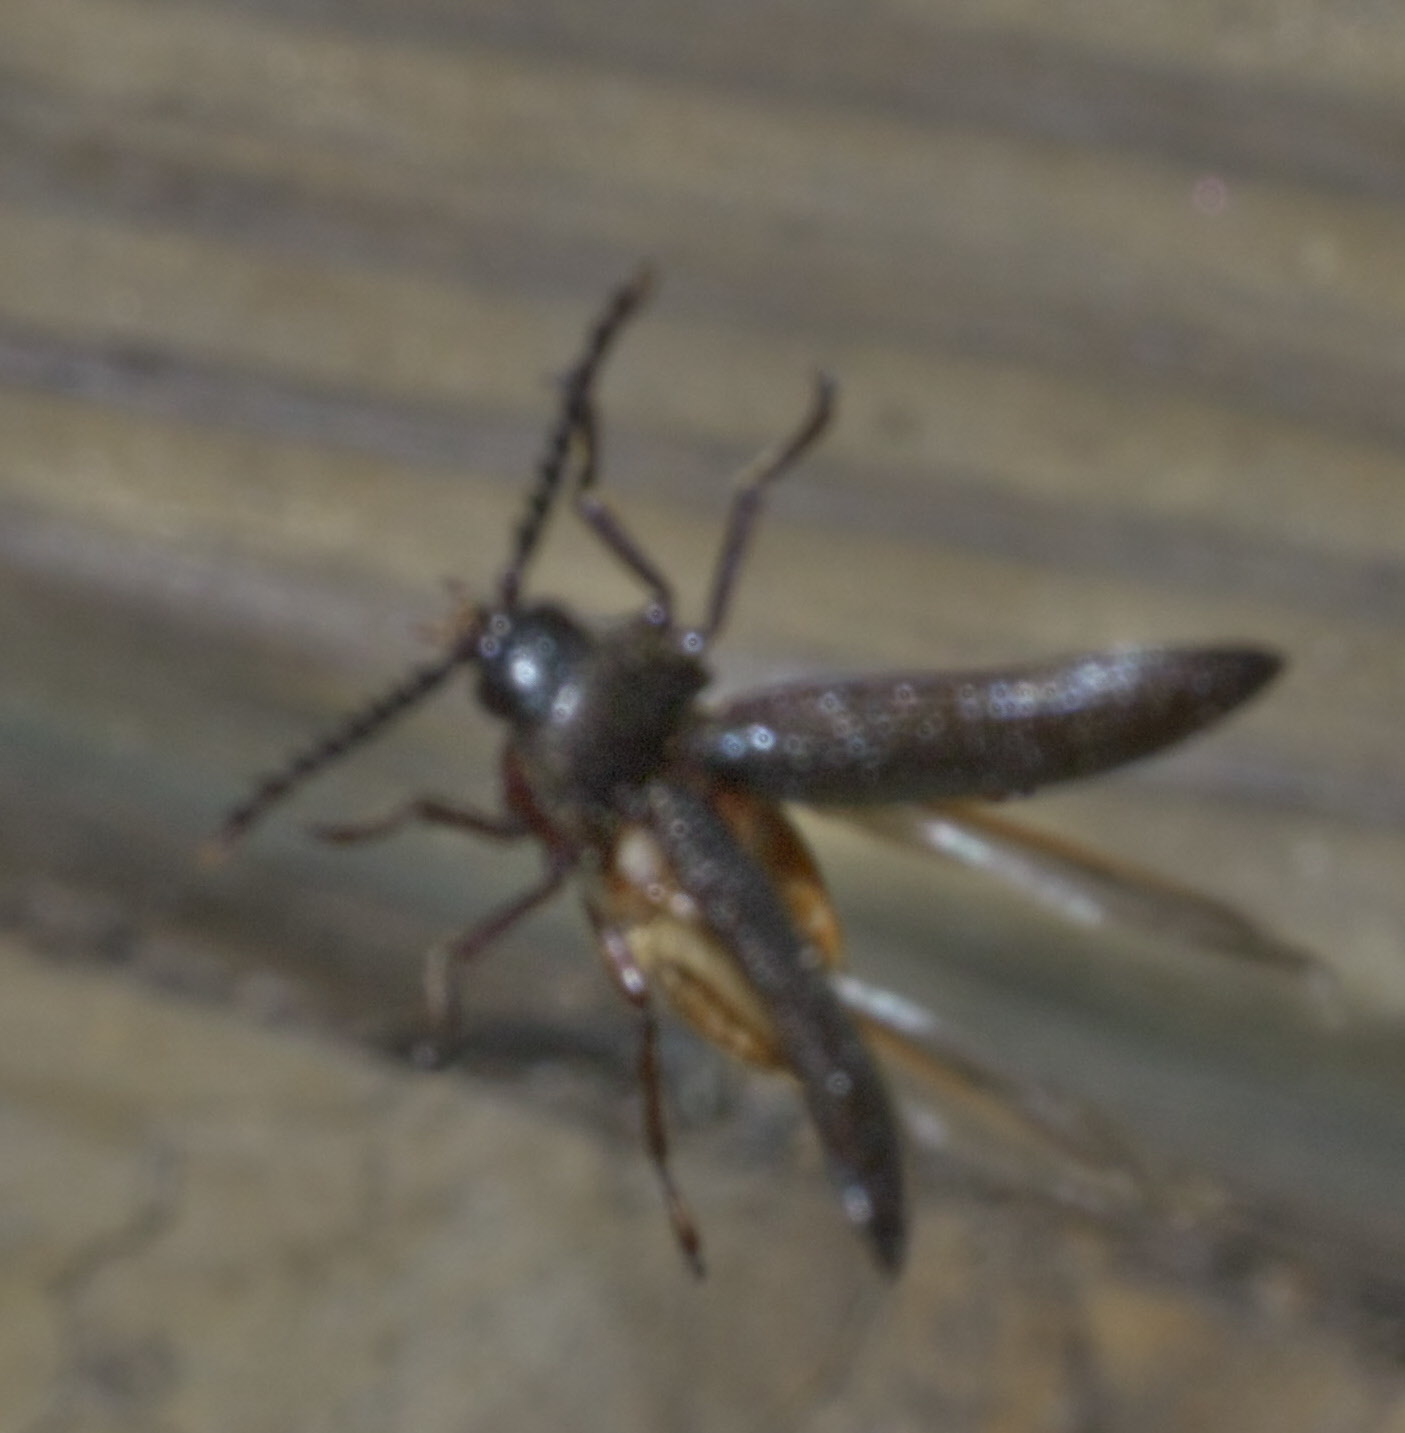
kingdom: Animalia
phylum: Arthropoda
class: Insecta
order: Coleoptera
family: Callirhipidae
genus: Zenoa
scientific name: Zenoa picea
